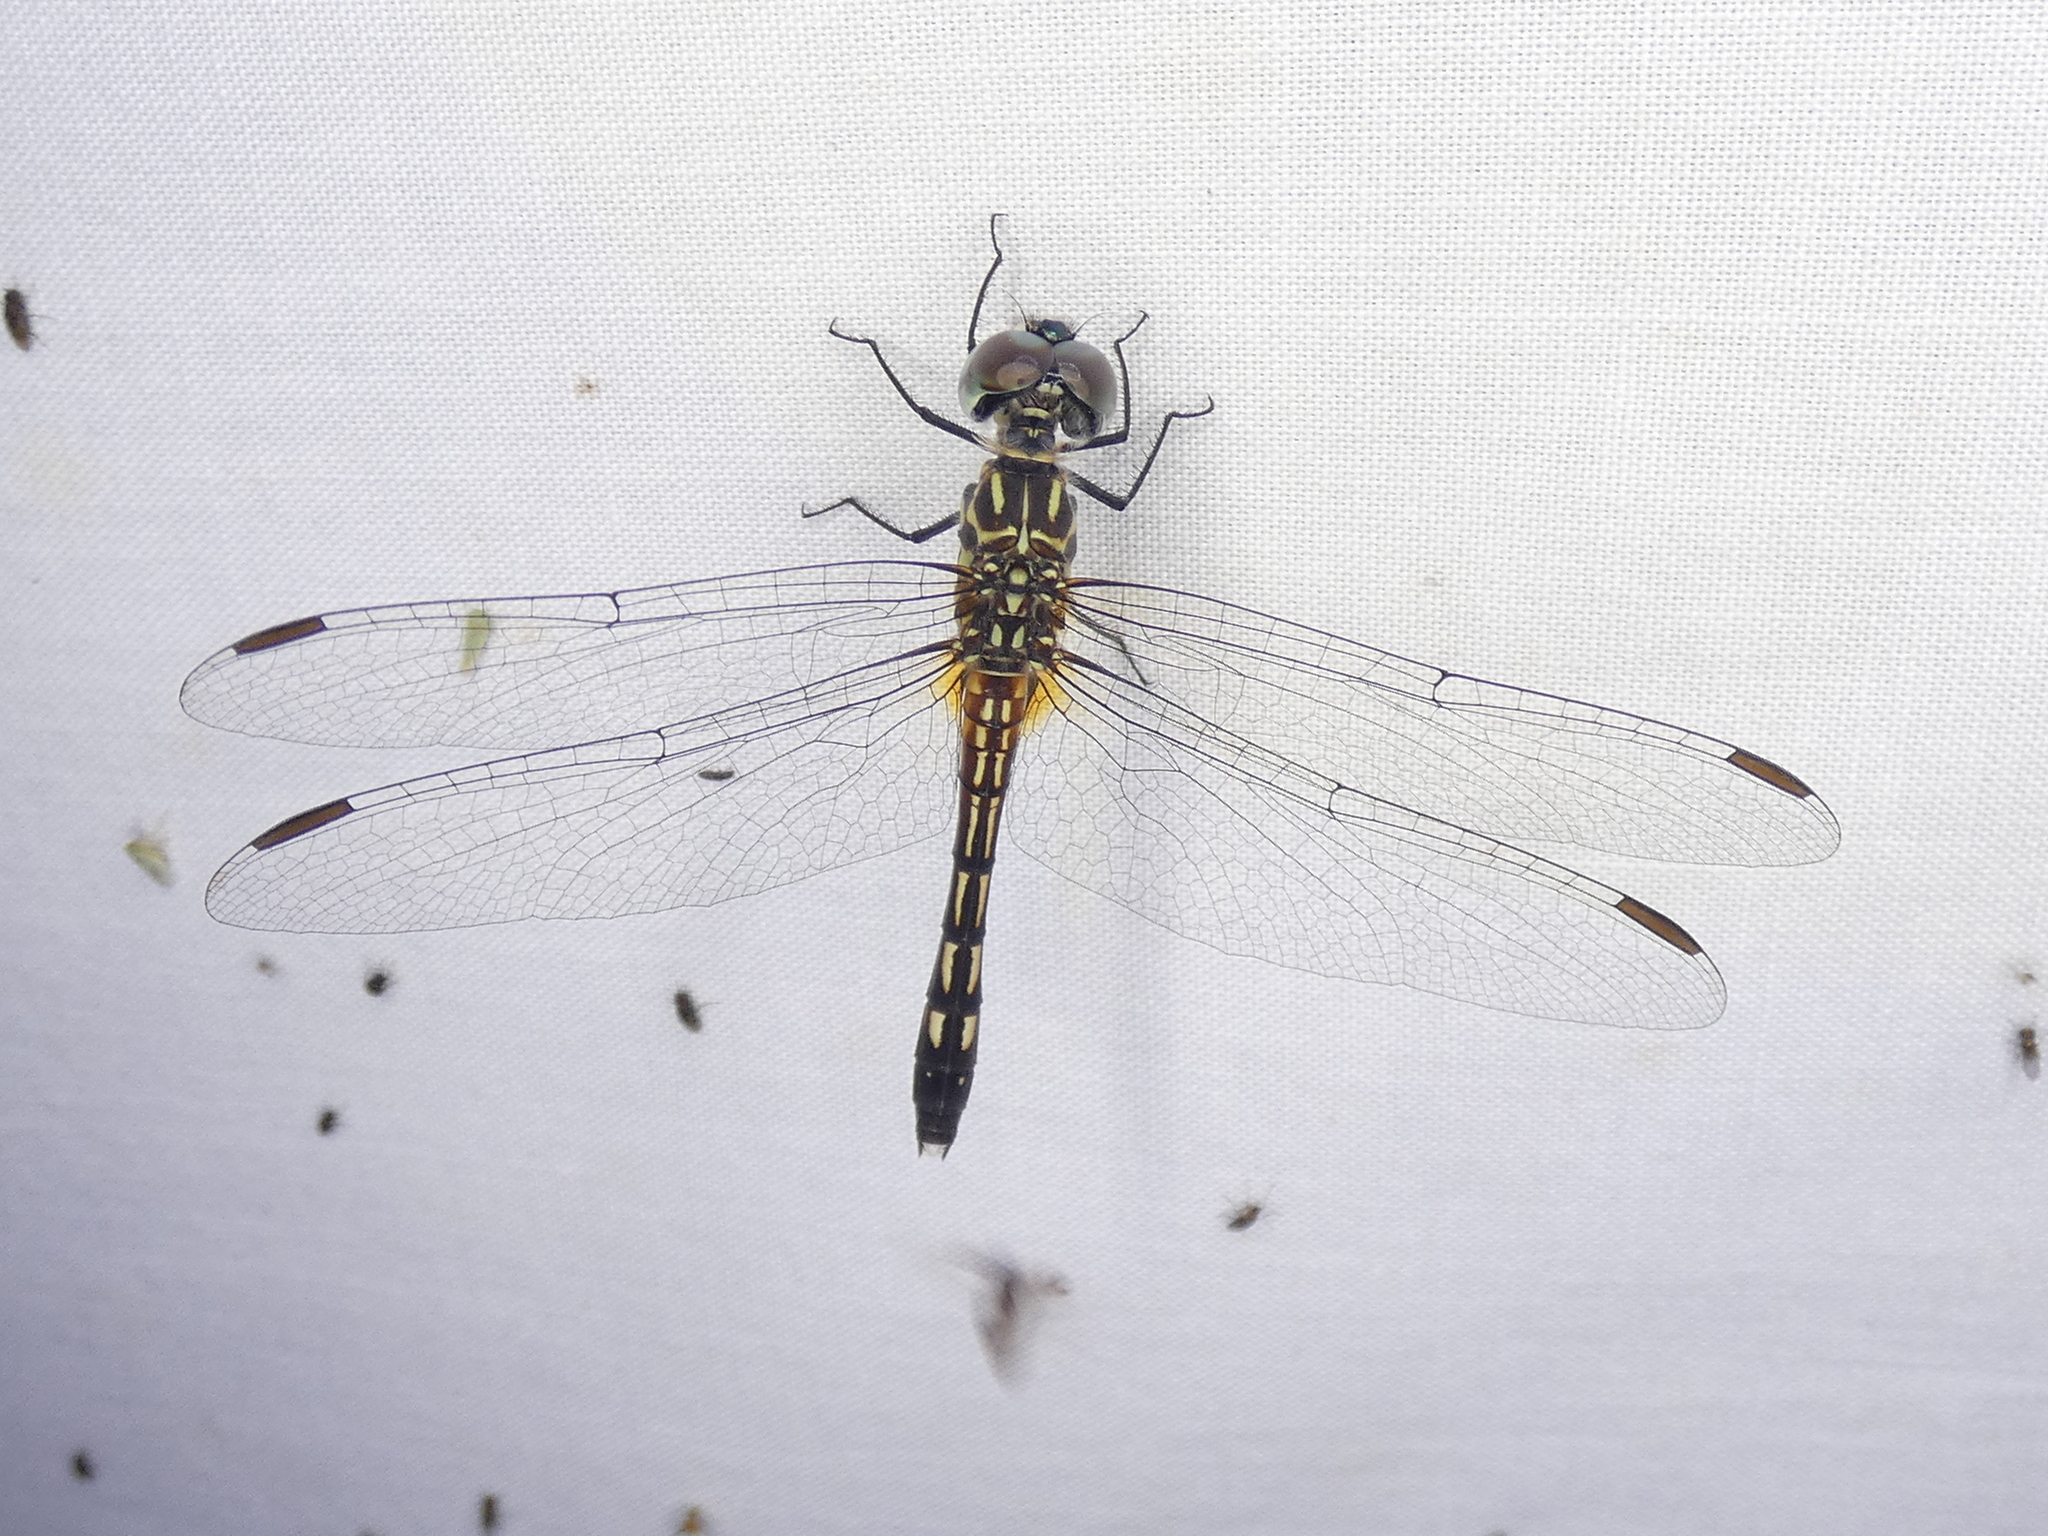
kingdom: Animalia
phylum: Arthropoda
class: Insecta
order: Odonata
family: Libellulidae
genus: Pachydiplax
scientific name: Pachydiplax longipennis
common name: Blue dasher
